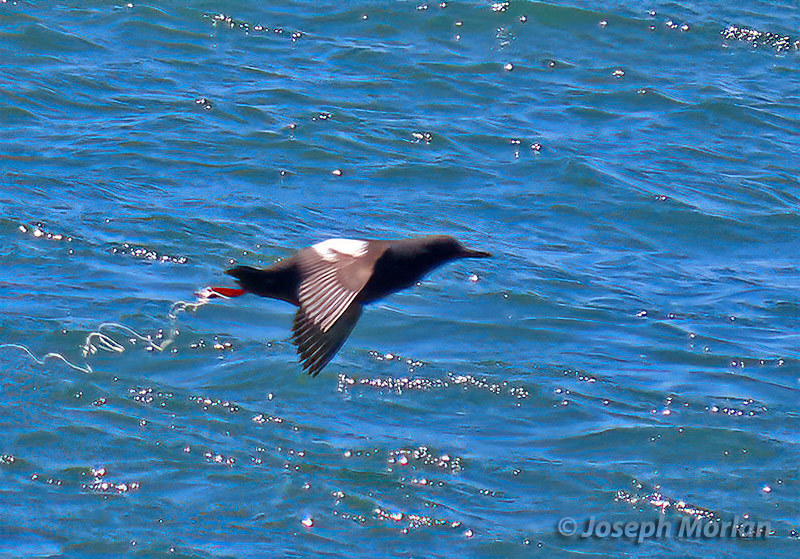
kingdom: Animalia
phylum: Chordata
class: Aves
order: Charadriiformes
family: Alcidae
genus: Cepphus
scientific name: Cepphus columba
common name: Pigeon guillemot
